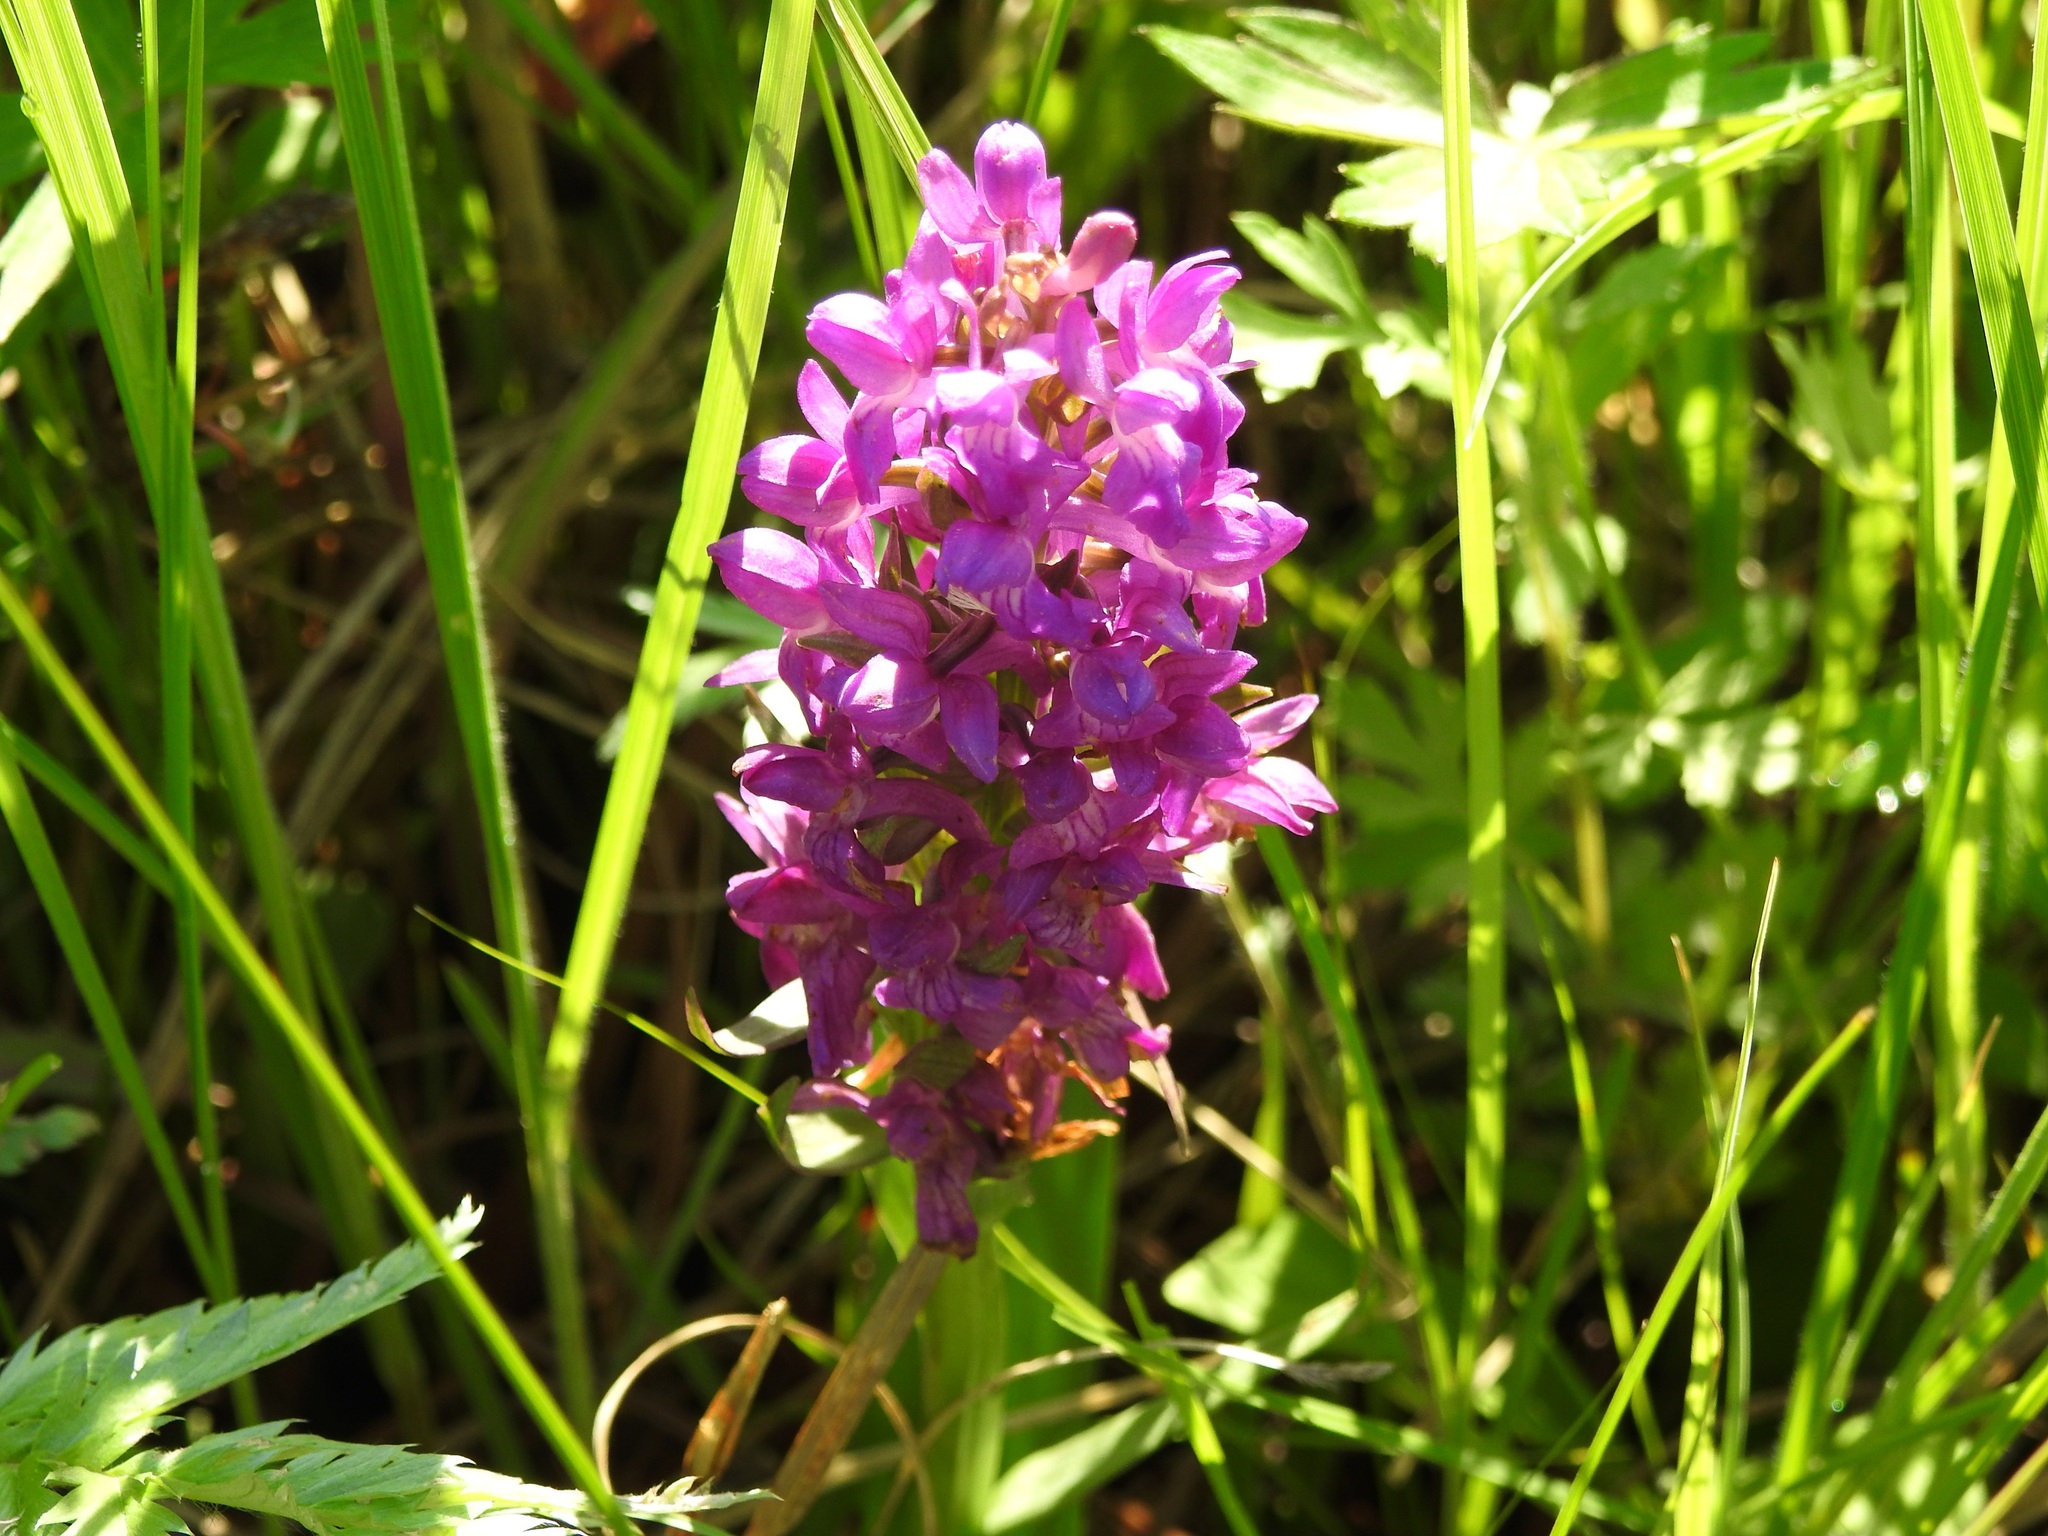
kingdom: Plantae
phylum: Tracheophyta
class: Liliopsida
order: Asparagales
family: Orchidaceae
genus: Dactylorhiza
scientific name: Dactylorhiza salina
